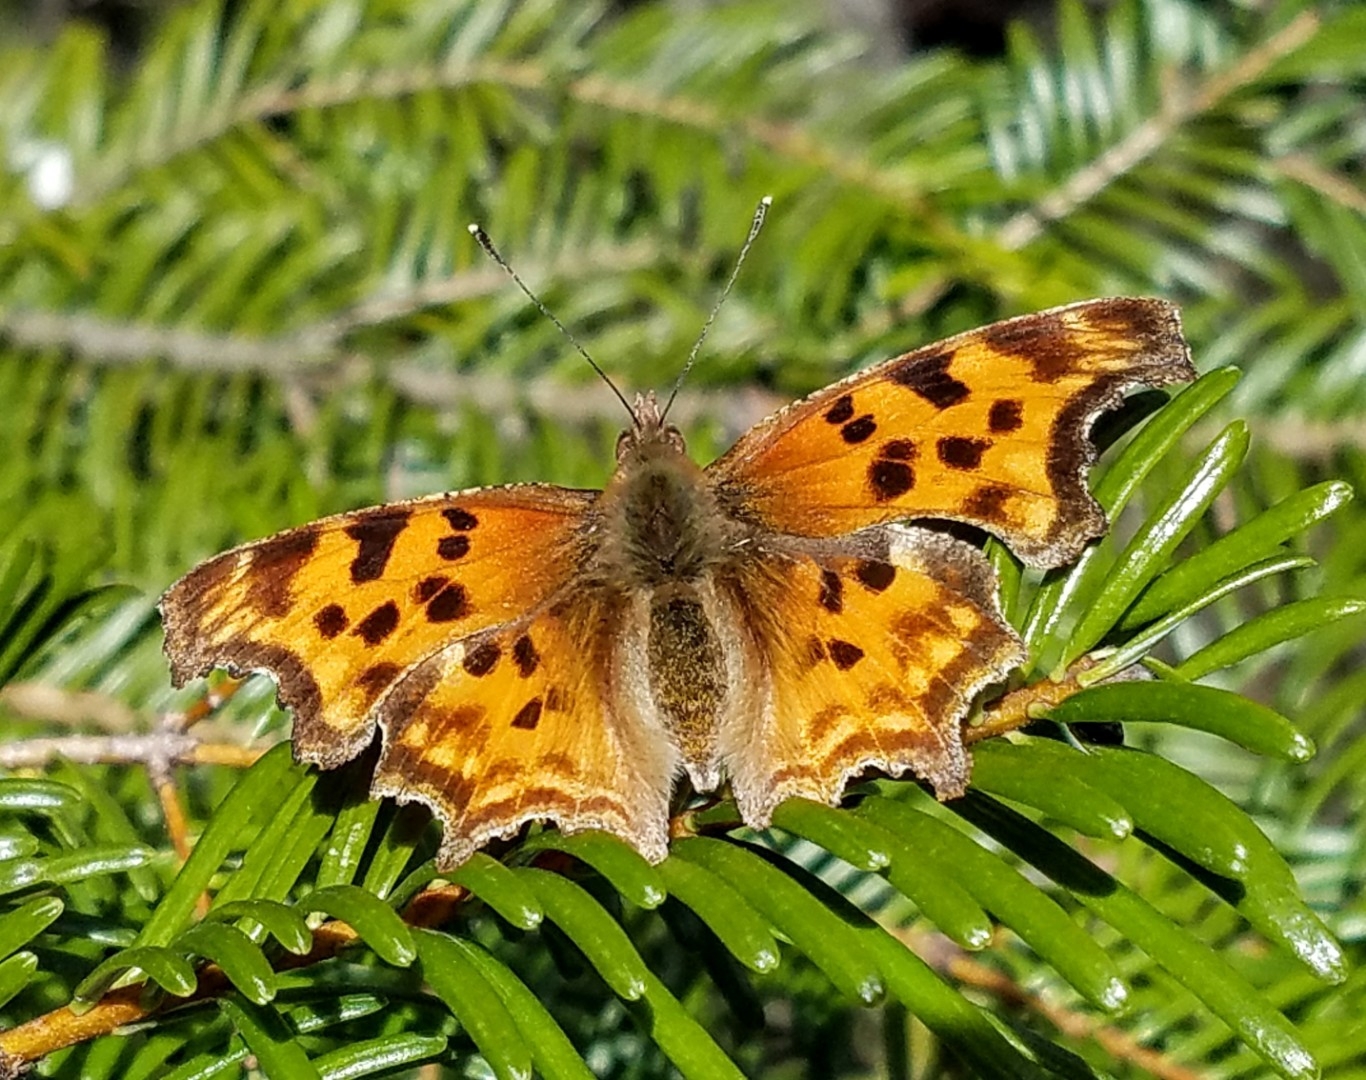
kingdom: Animalia
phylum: Arthropoda
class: Insecta
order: Lepidoptera
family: Nymphalidae
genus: Polygonia
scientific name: Polygonia satyrus
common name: Satyr angle wing
